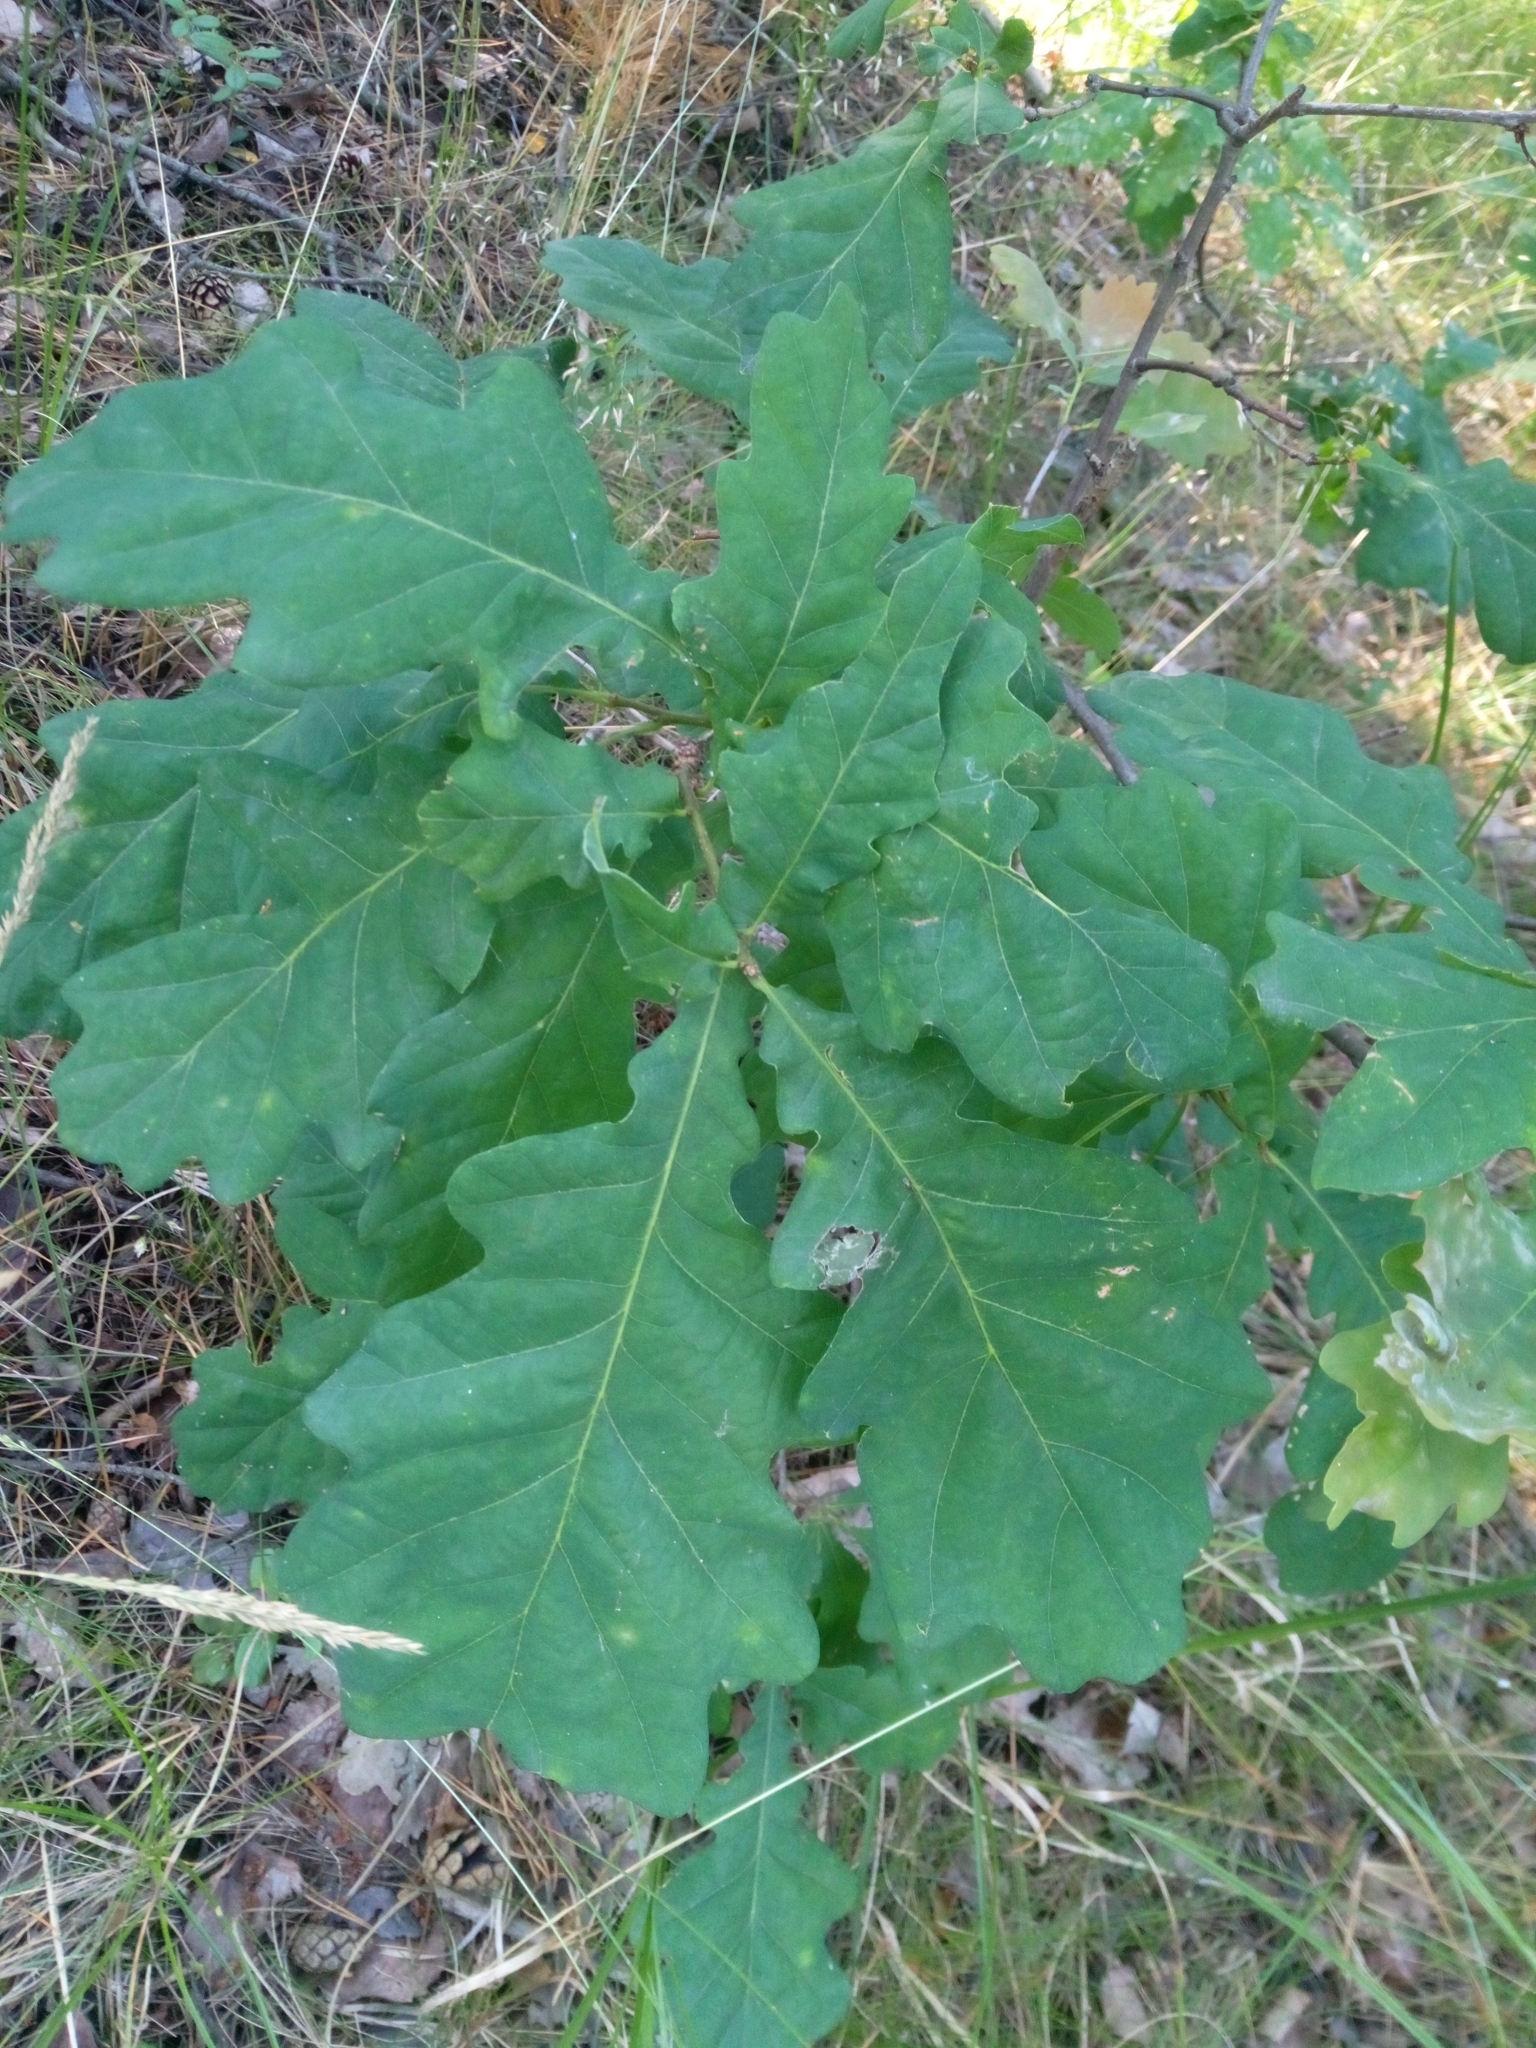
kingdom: Plantae
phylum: Tracheophyta
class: Magnoliopsida
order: Fagales
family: Fagaceae
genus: Quercus
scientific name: Quercus robur
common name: Pedunculate oak
